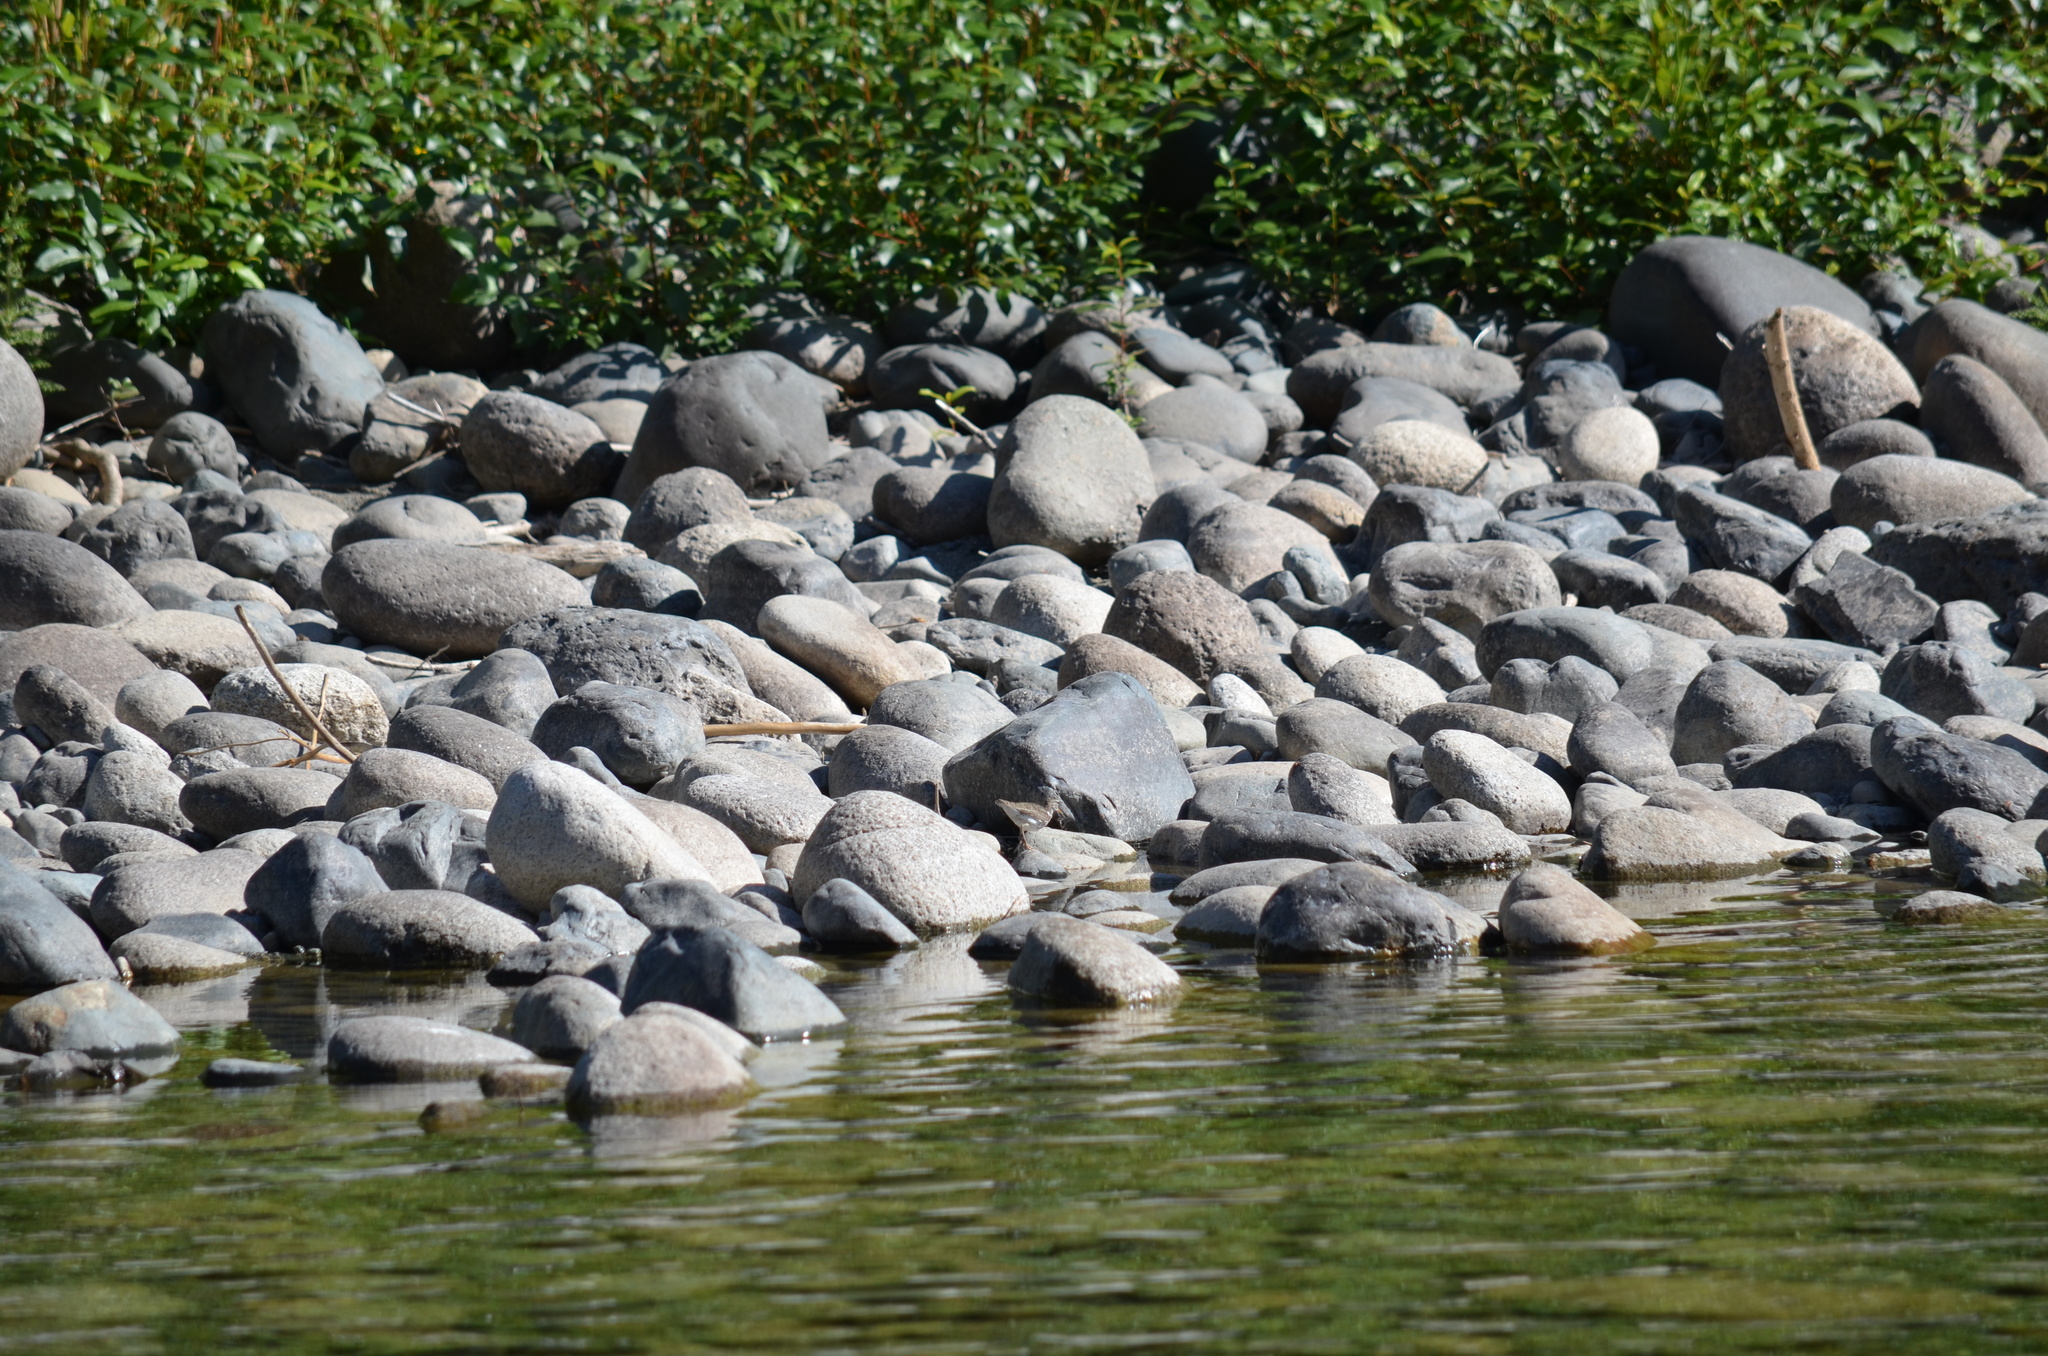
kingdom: Animalia
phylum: Chordata
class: Aves
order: Charadriiformes
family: Scolopacidae
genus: Actitis
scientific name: Actitis macularius
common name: Spotted sandpiper
